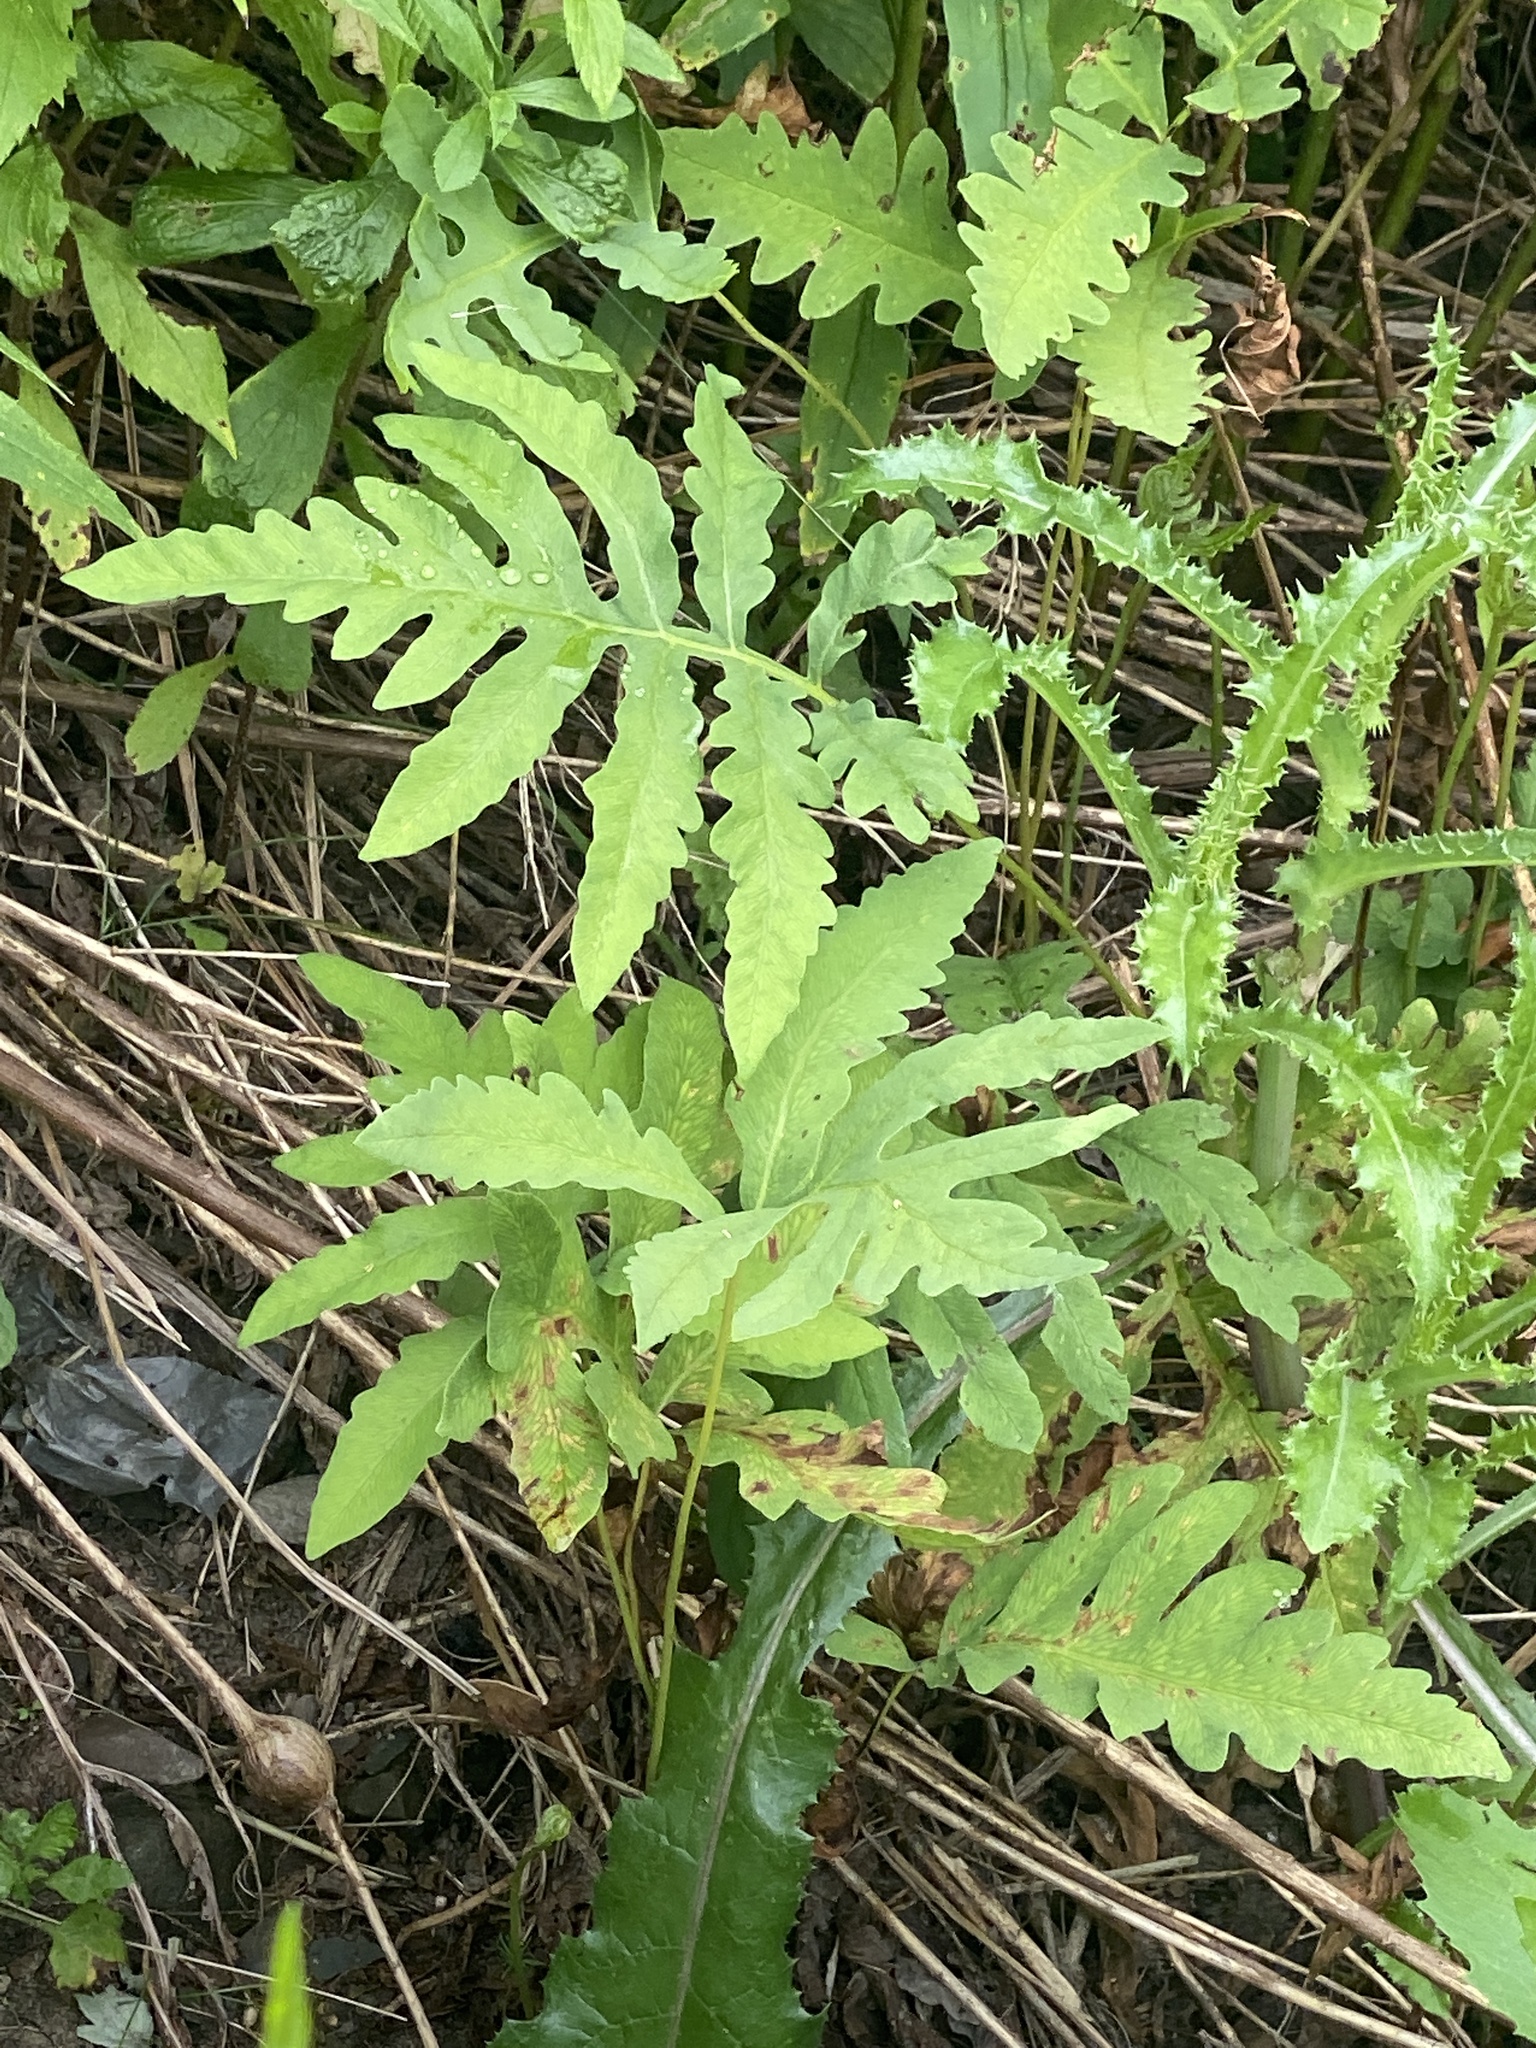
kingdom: Plantae
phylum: Tracheophyta
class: Polypodiopsida
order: Polypodiales
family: Onocleaceae
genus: Onoclea
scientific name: Onoclea sensibilis
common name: Sensitive fern
